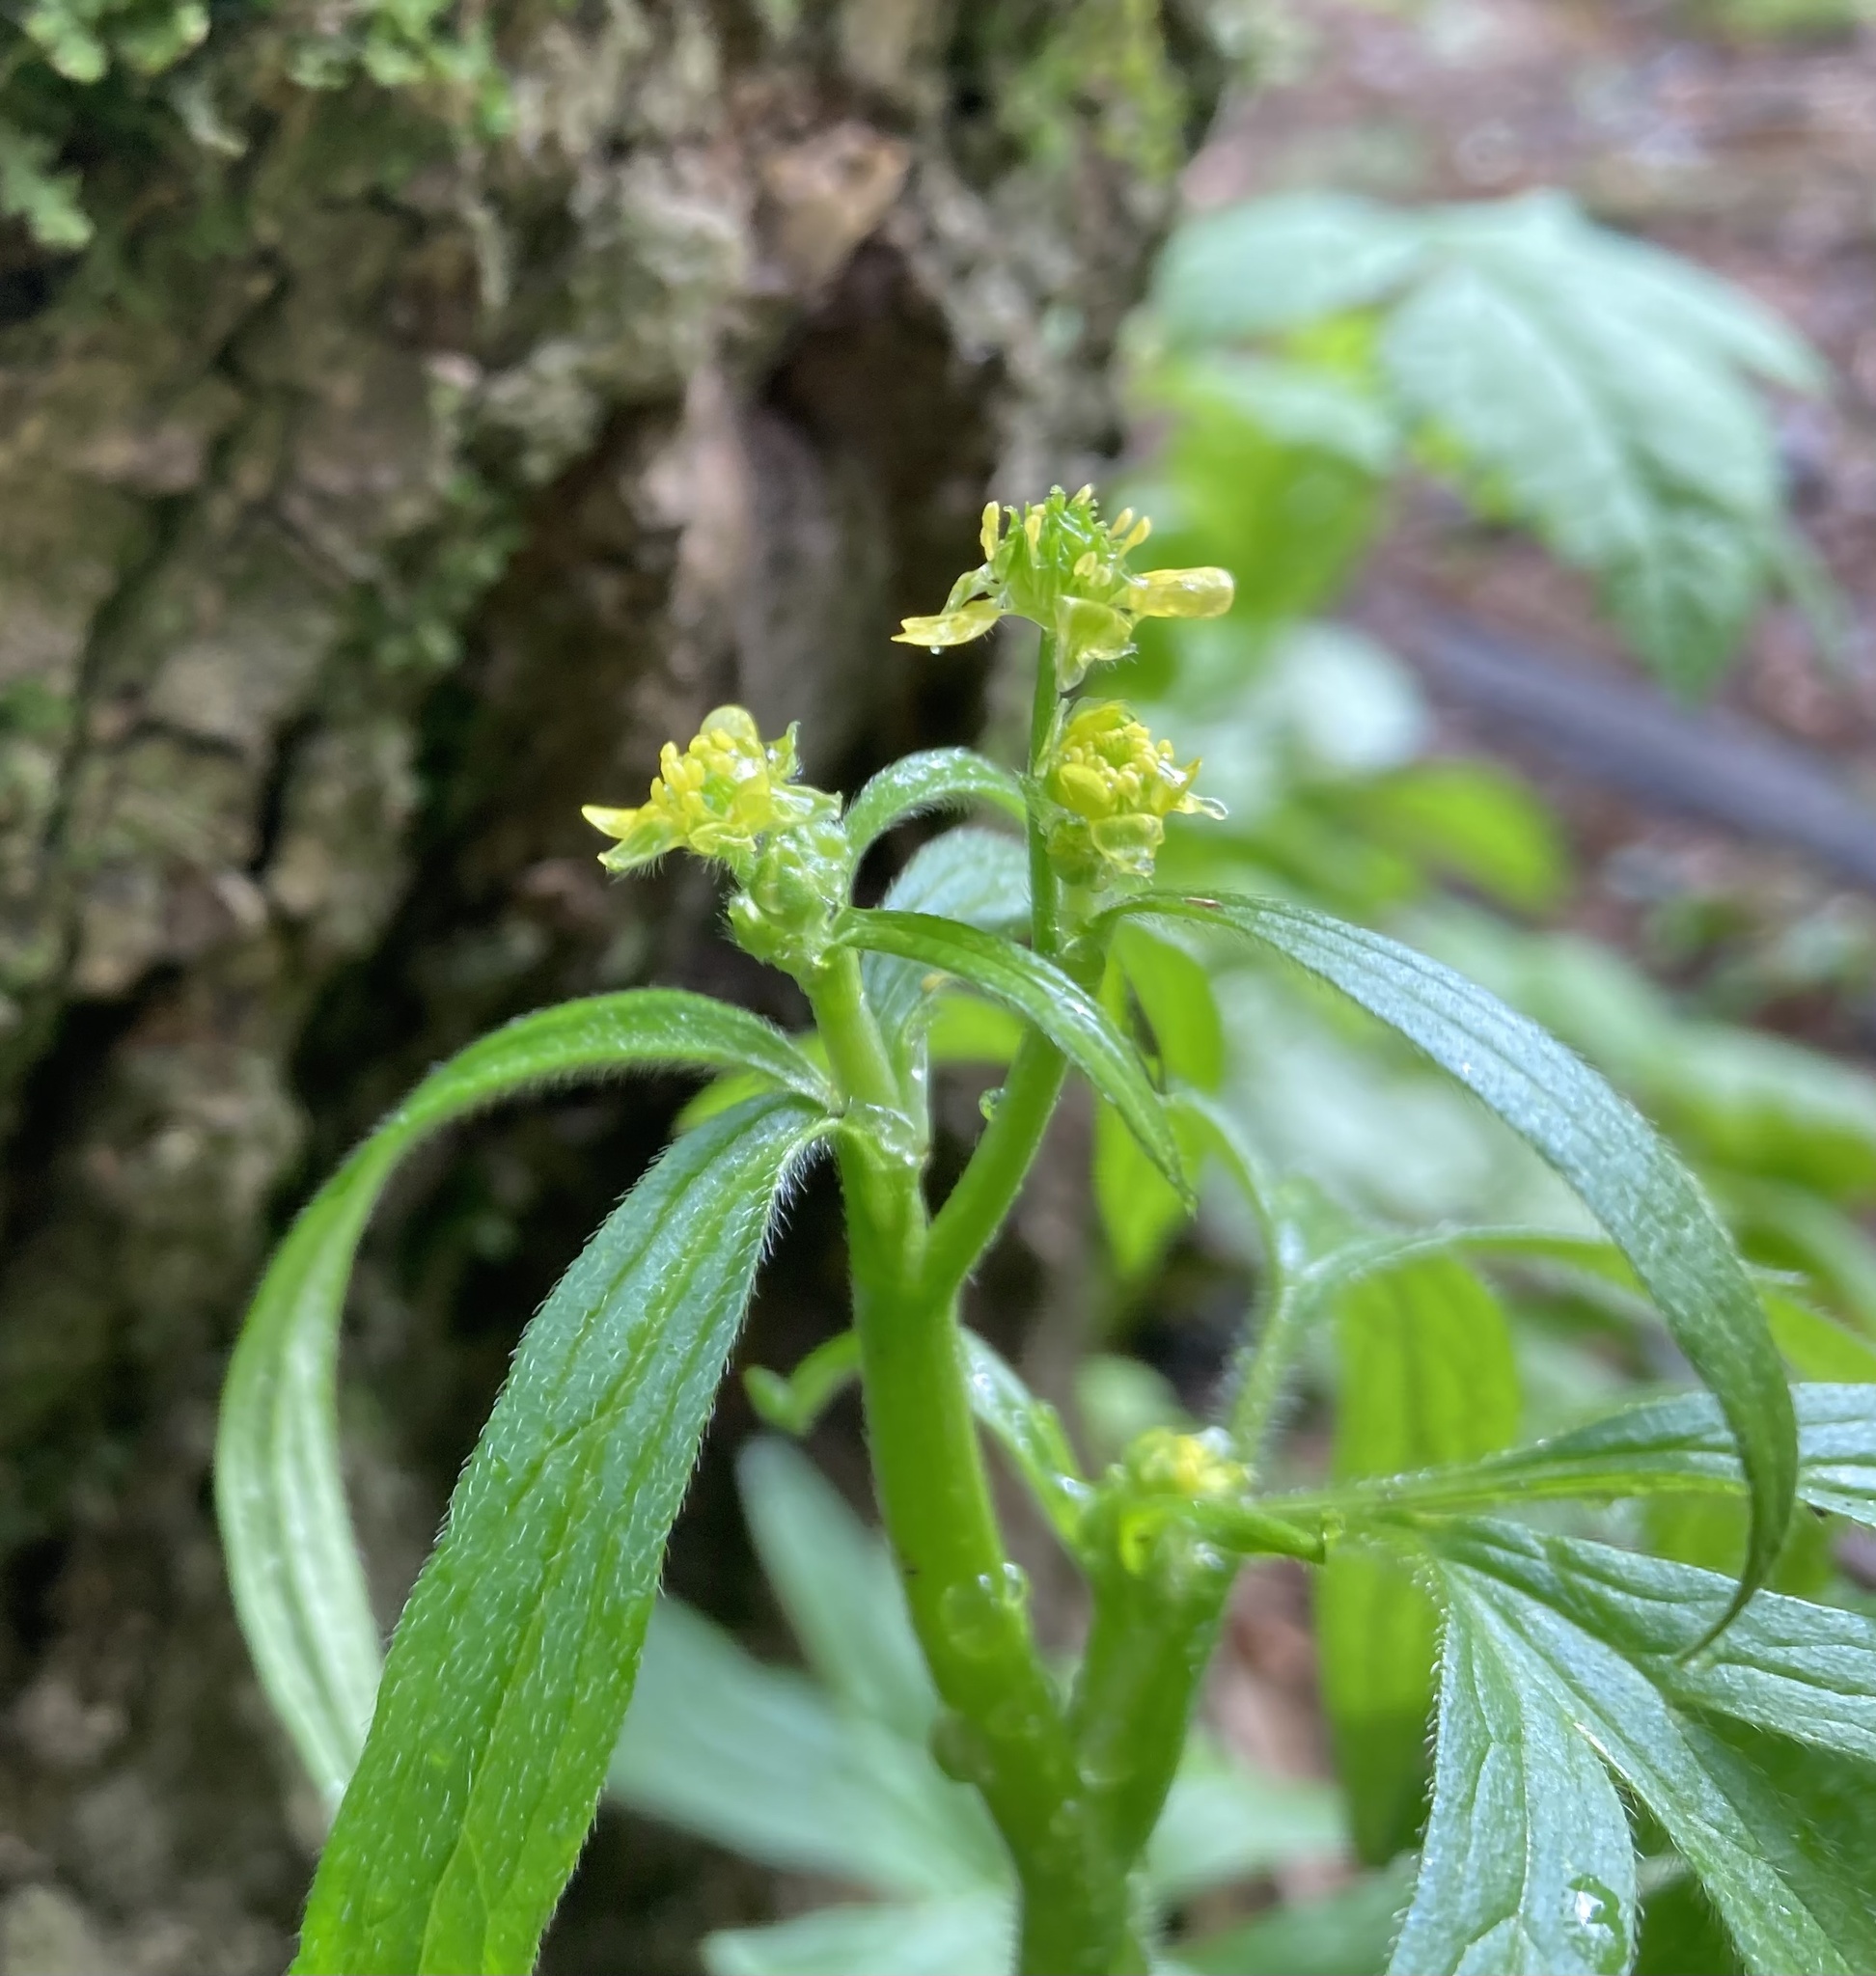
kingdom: Plantae
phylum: Tracheophyta
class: Magnoliopsida
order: Ranunculales
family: Ranunculaceae
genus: Ranunculus
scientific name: Ranunculus uncinatus
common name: Little buttercup
